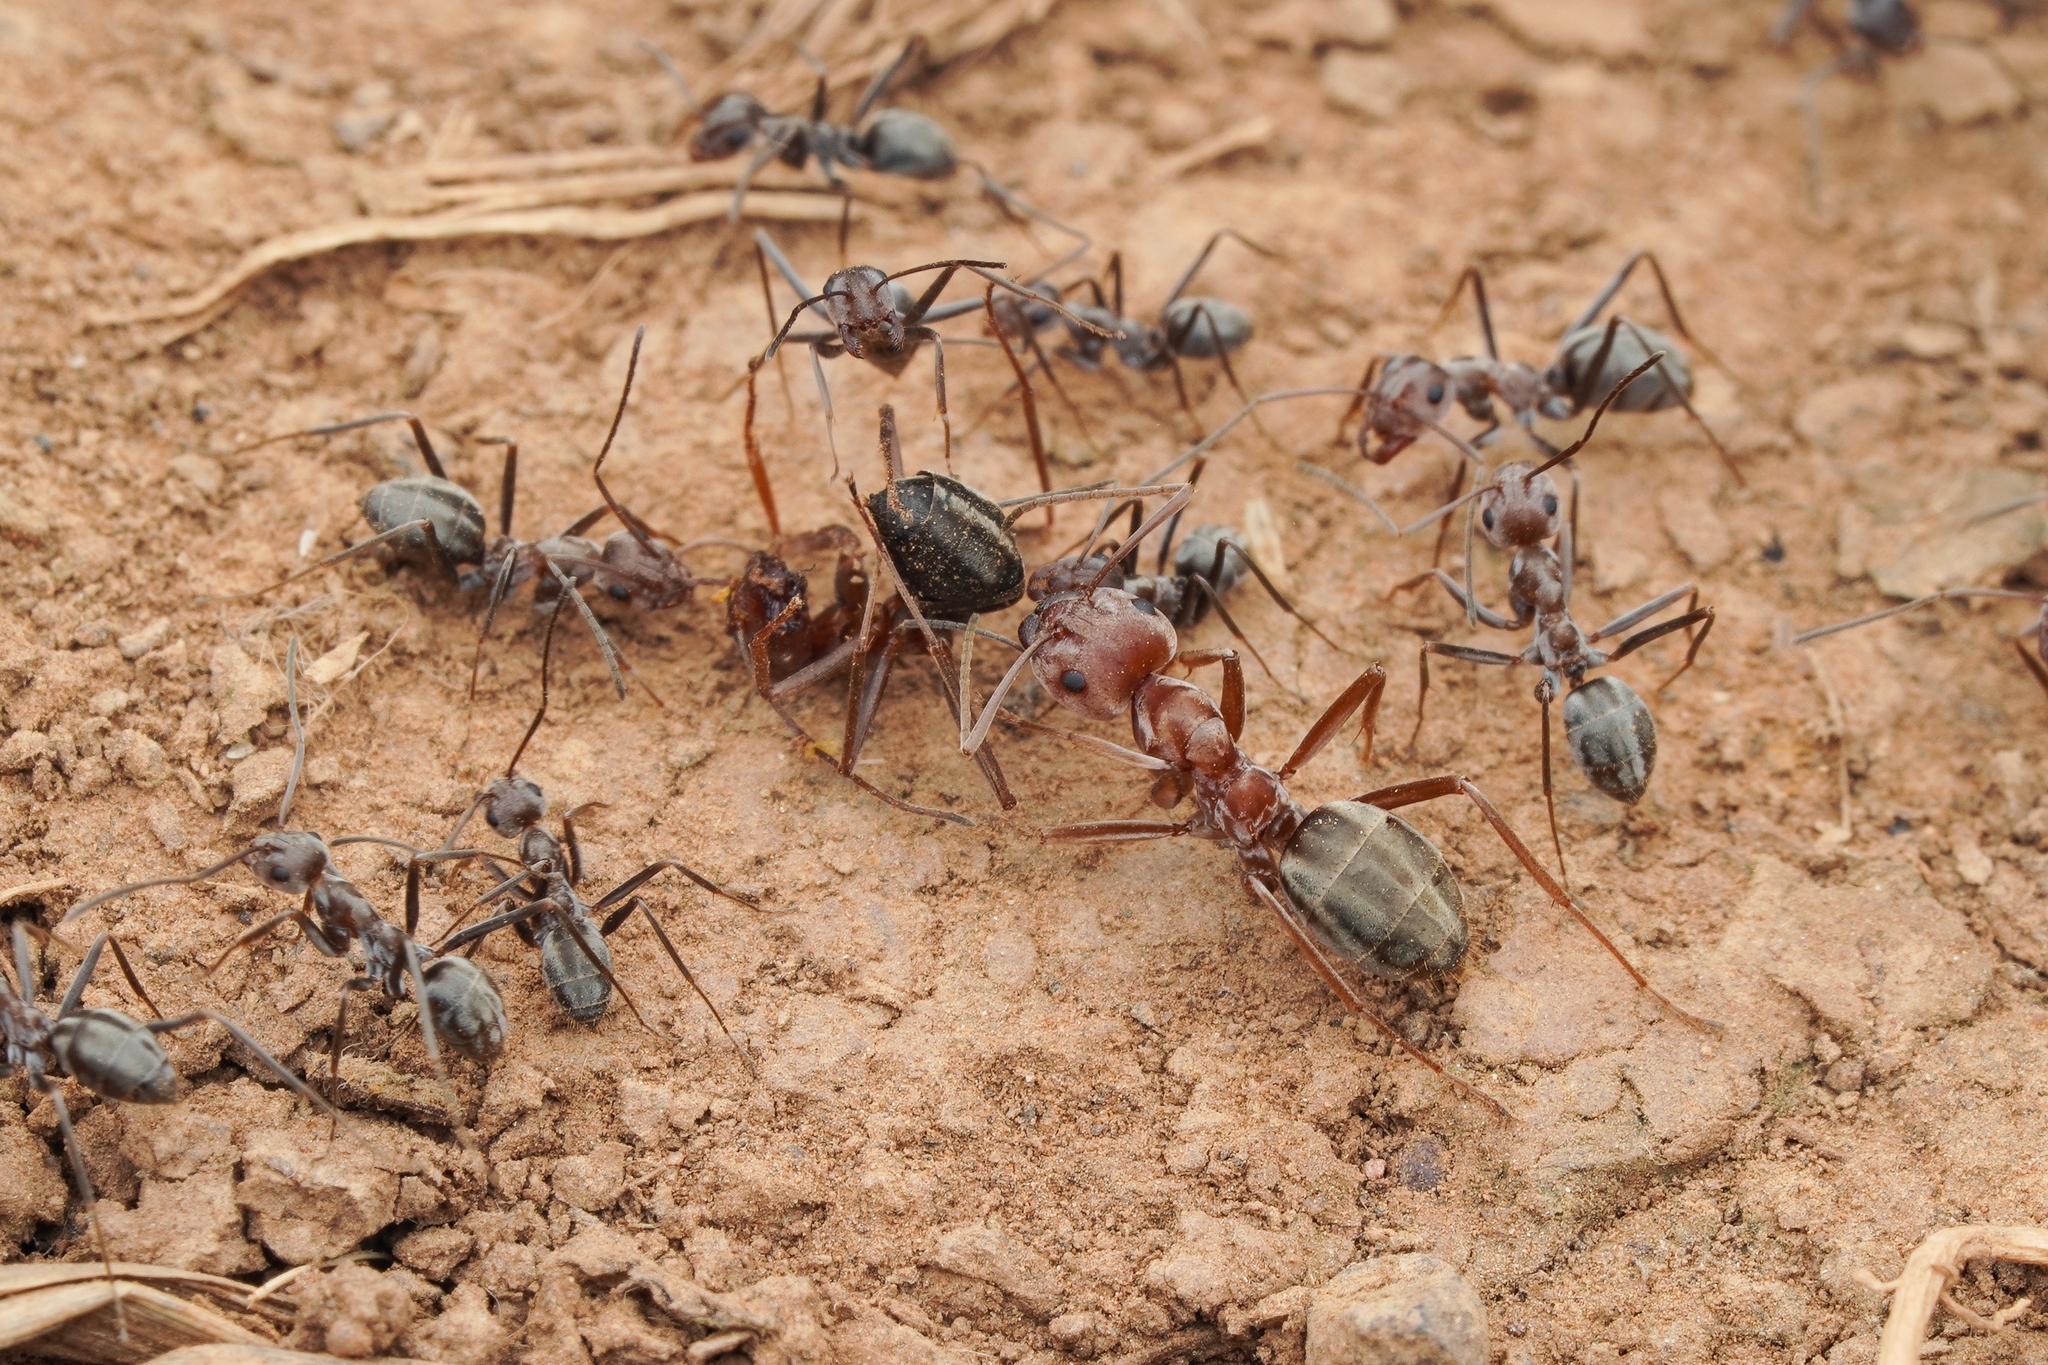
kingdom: Animalia
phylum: Arthropoda
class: Insecta
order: Hymenoptera
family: Formicidae
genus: Anoplolepis
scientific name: Anoplolepis custodiens
